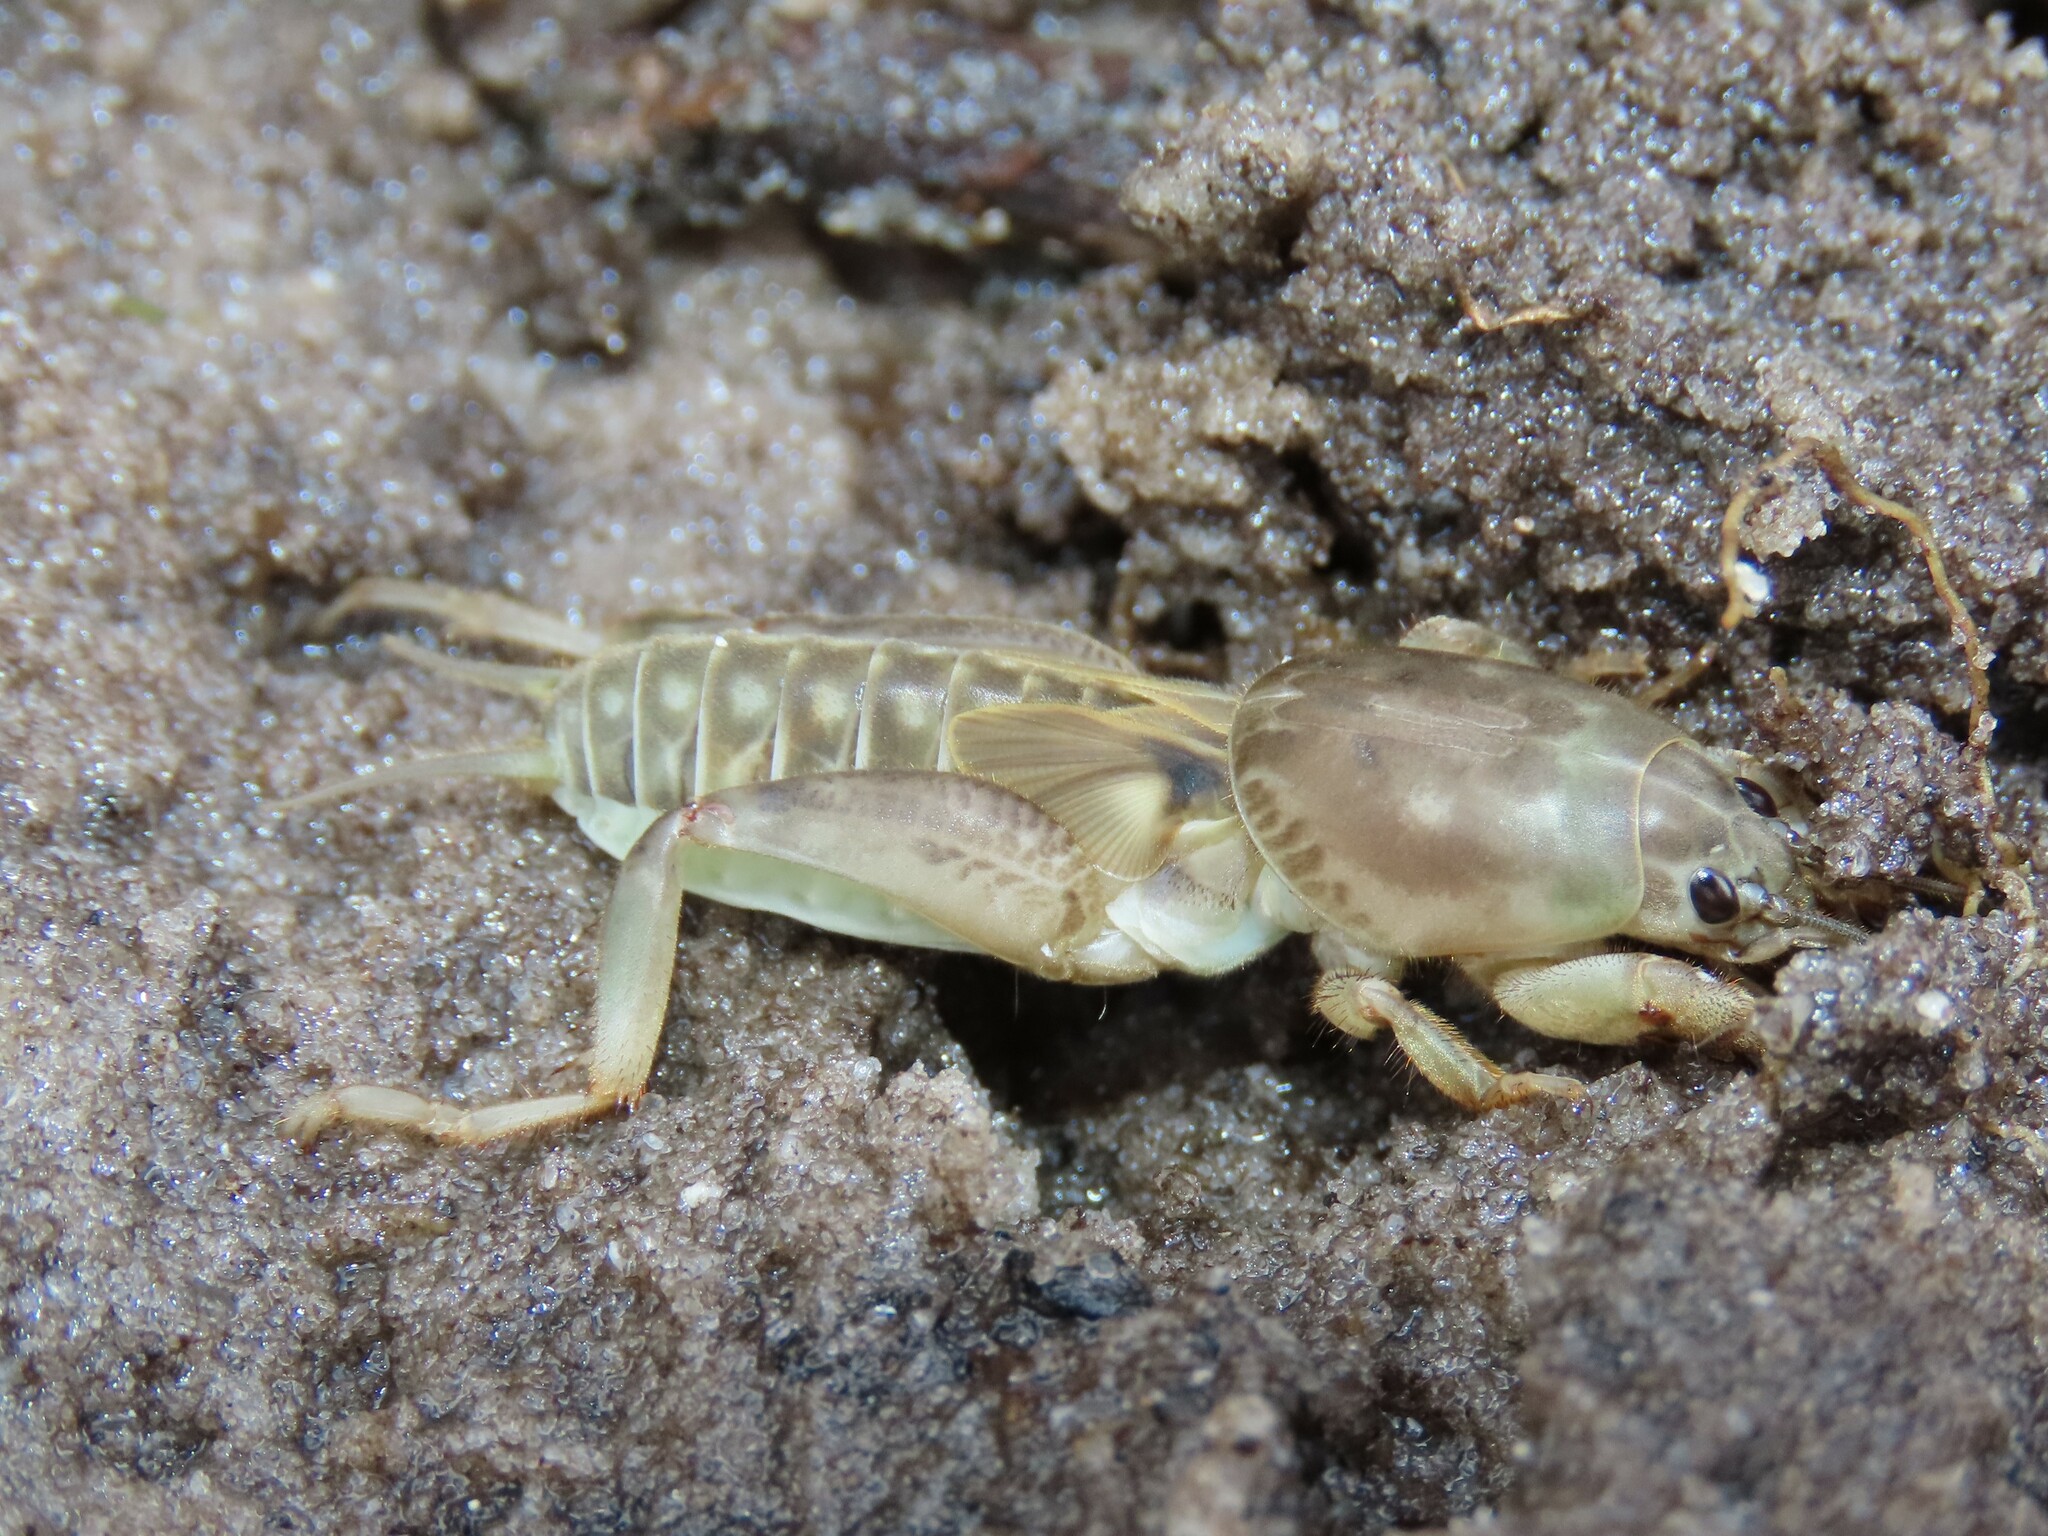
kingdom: Animalia
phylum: Arthropoda
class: Insecta
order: Orthoptera
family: Gryllotalpidae
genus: Neoscapteriscus
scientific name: Neoscapteriscus borellii
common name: Southern mole cricket
